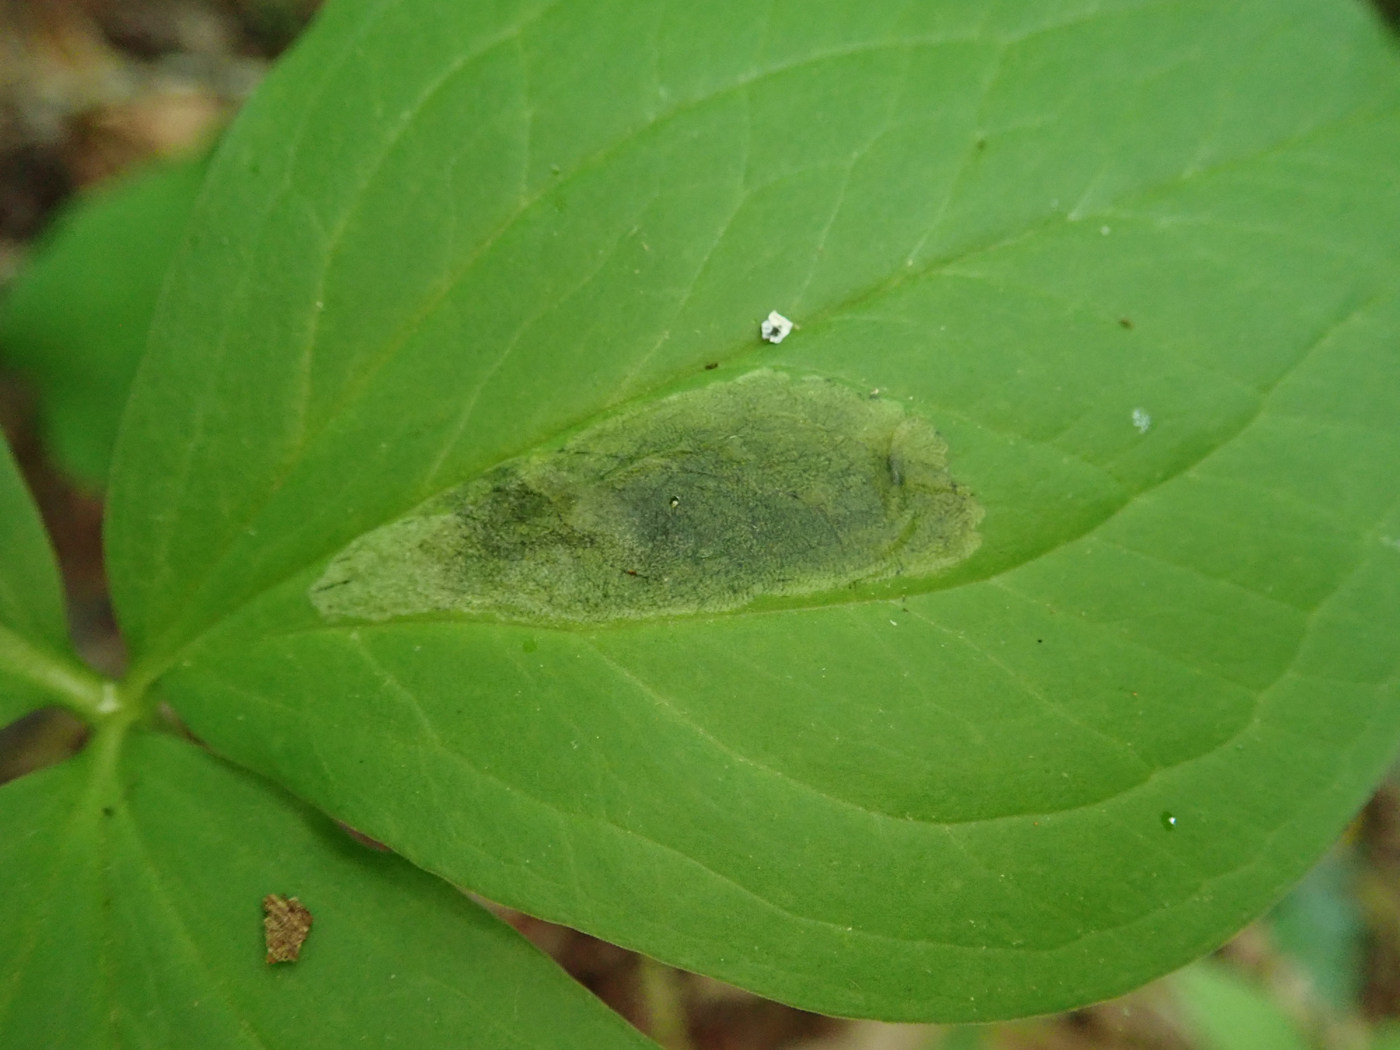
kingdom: Animalia
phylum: Arthropoda
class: Insecta
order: Diptera
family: Scathophagidae
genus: Leptopa
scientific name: Leptopa
